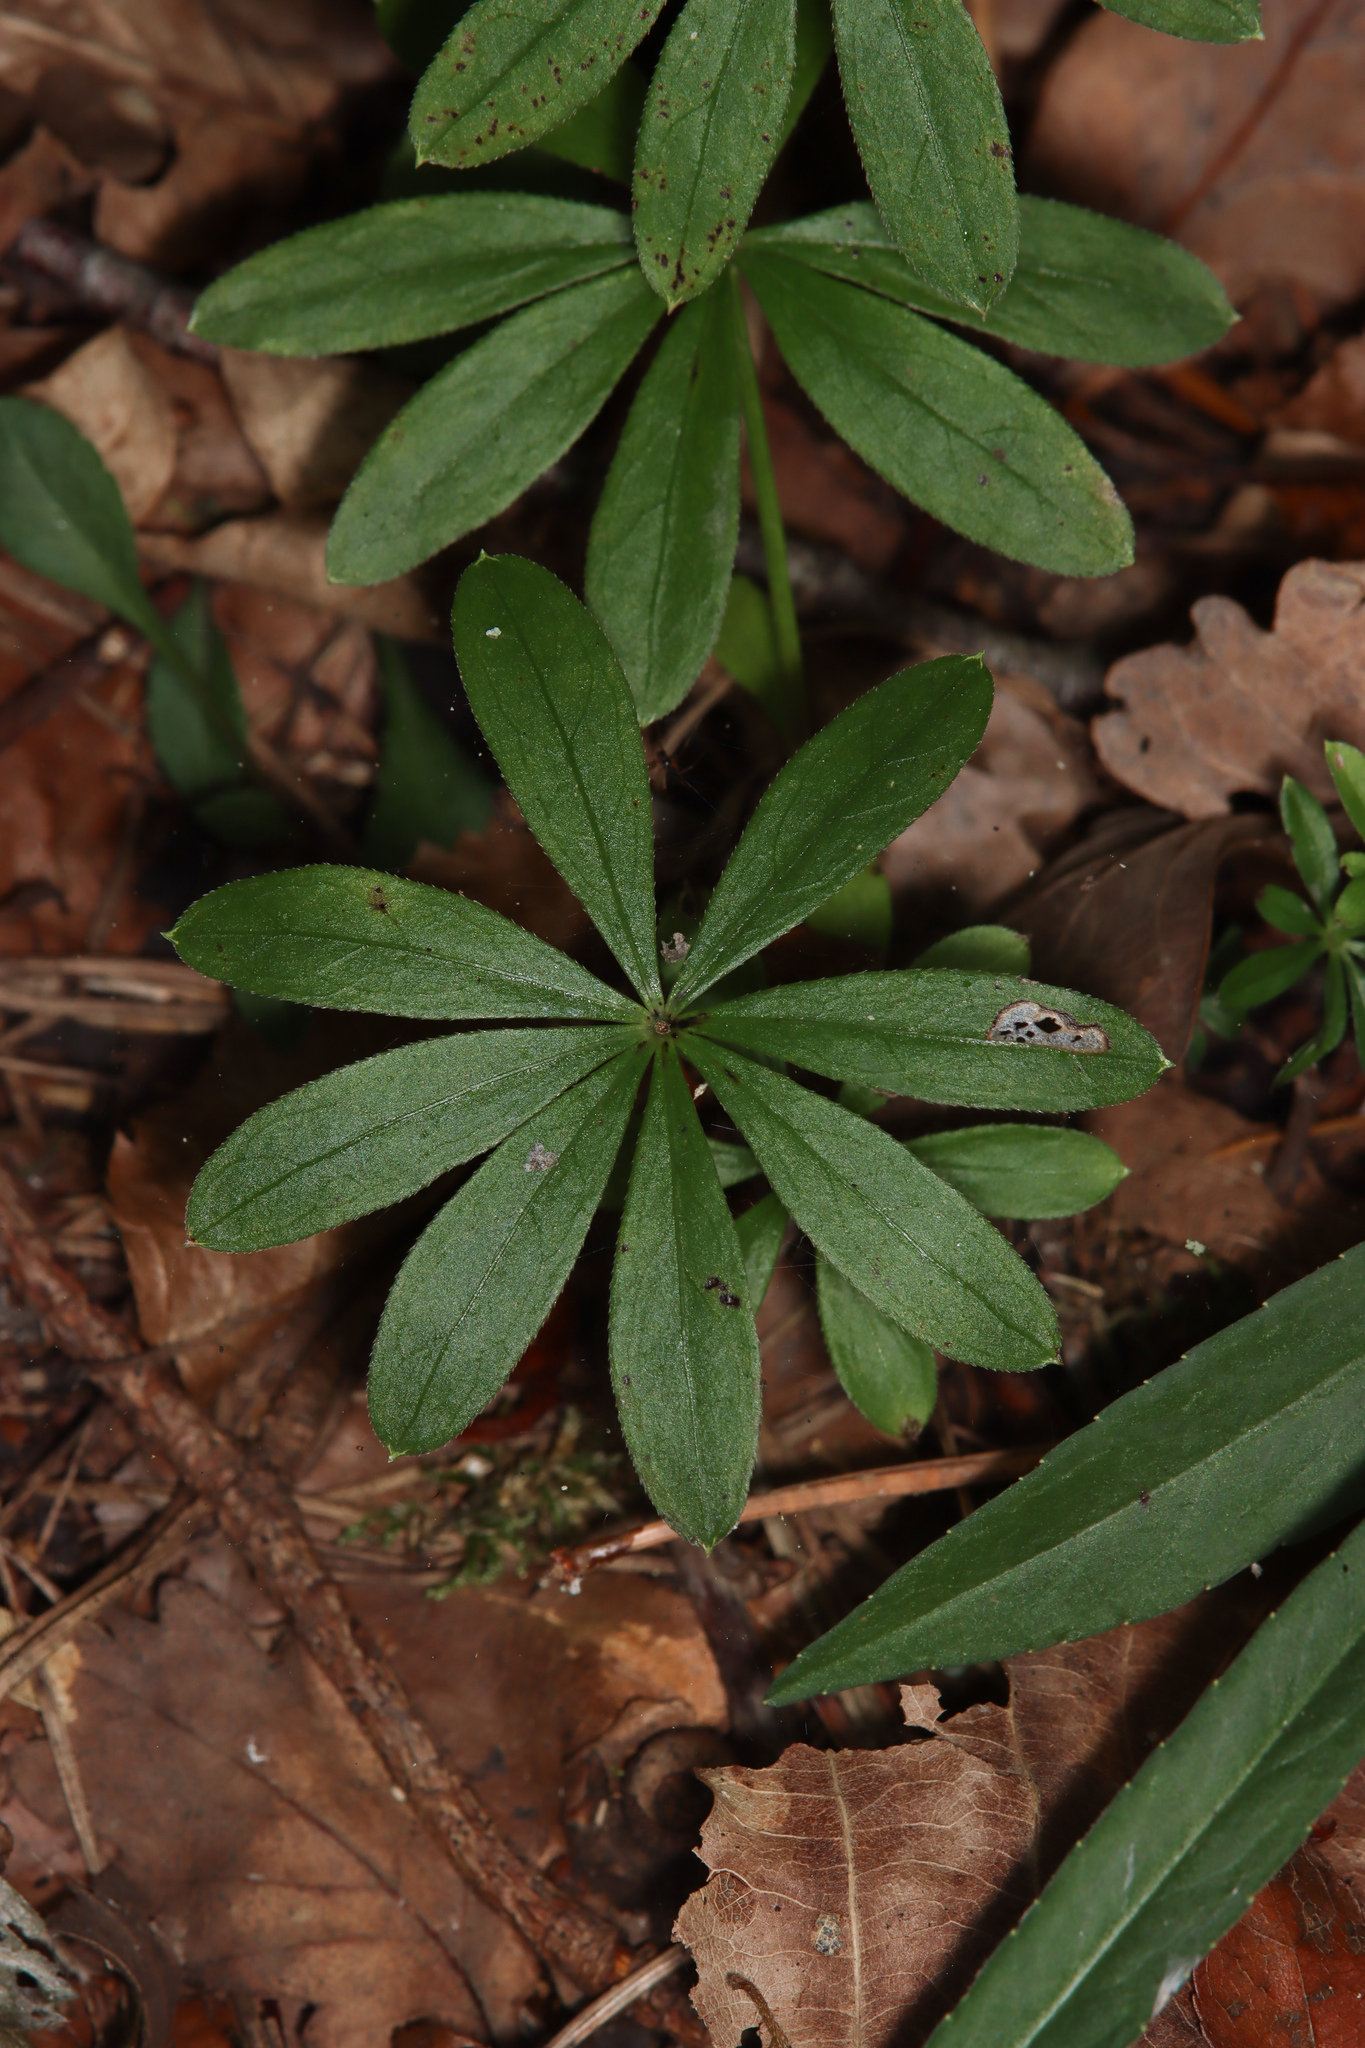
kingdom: Plantae
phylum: Tracheophyta
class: Magnoliopsida
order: Gentianales
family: Rubiaceae
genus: Galium
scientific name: Galium odoratum
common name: Sweet woodruff
